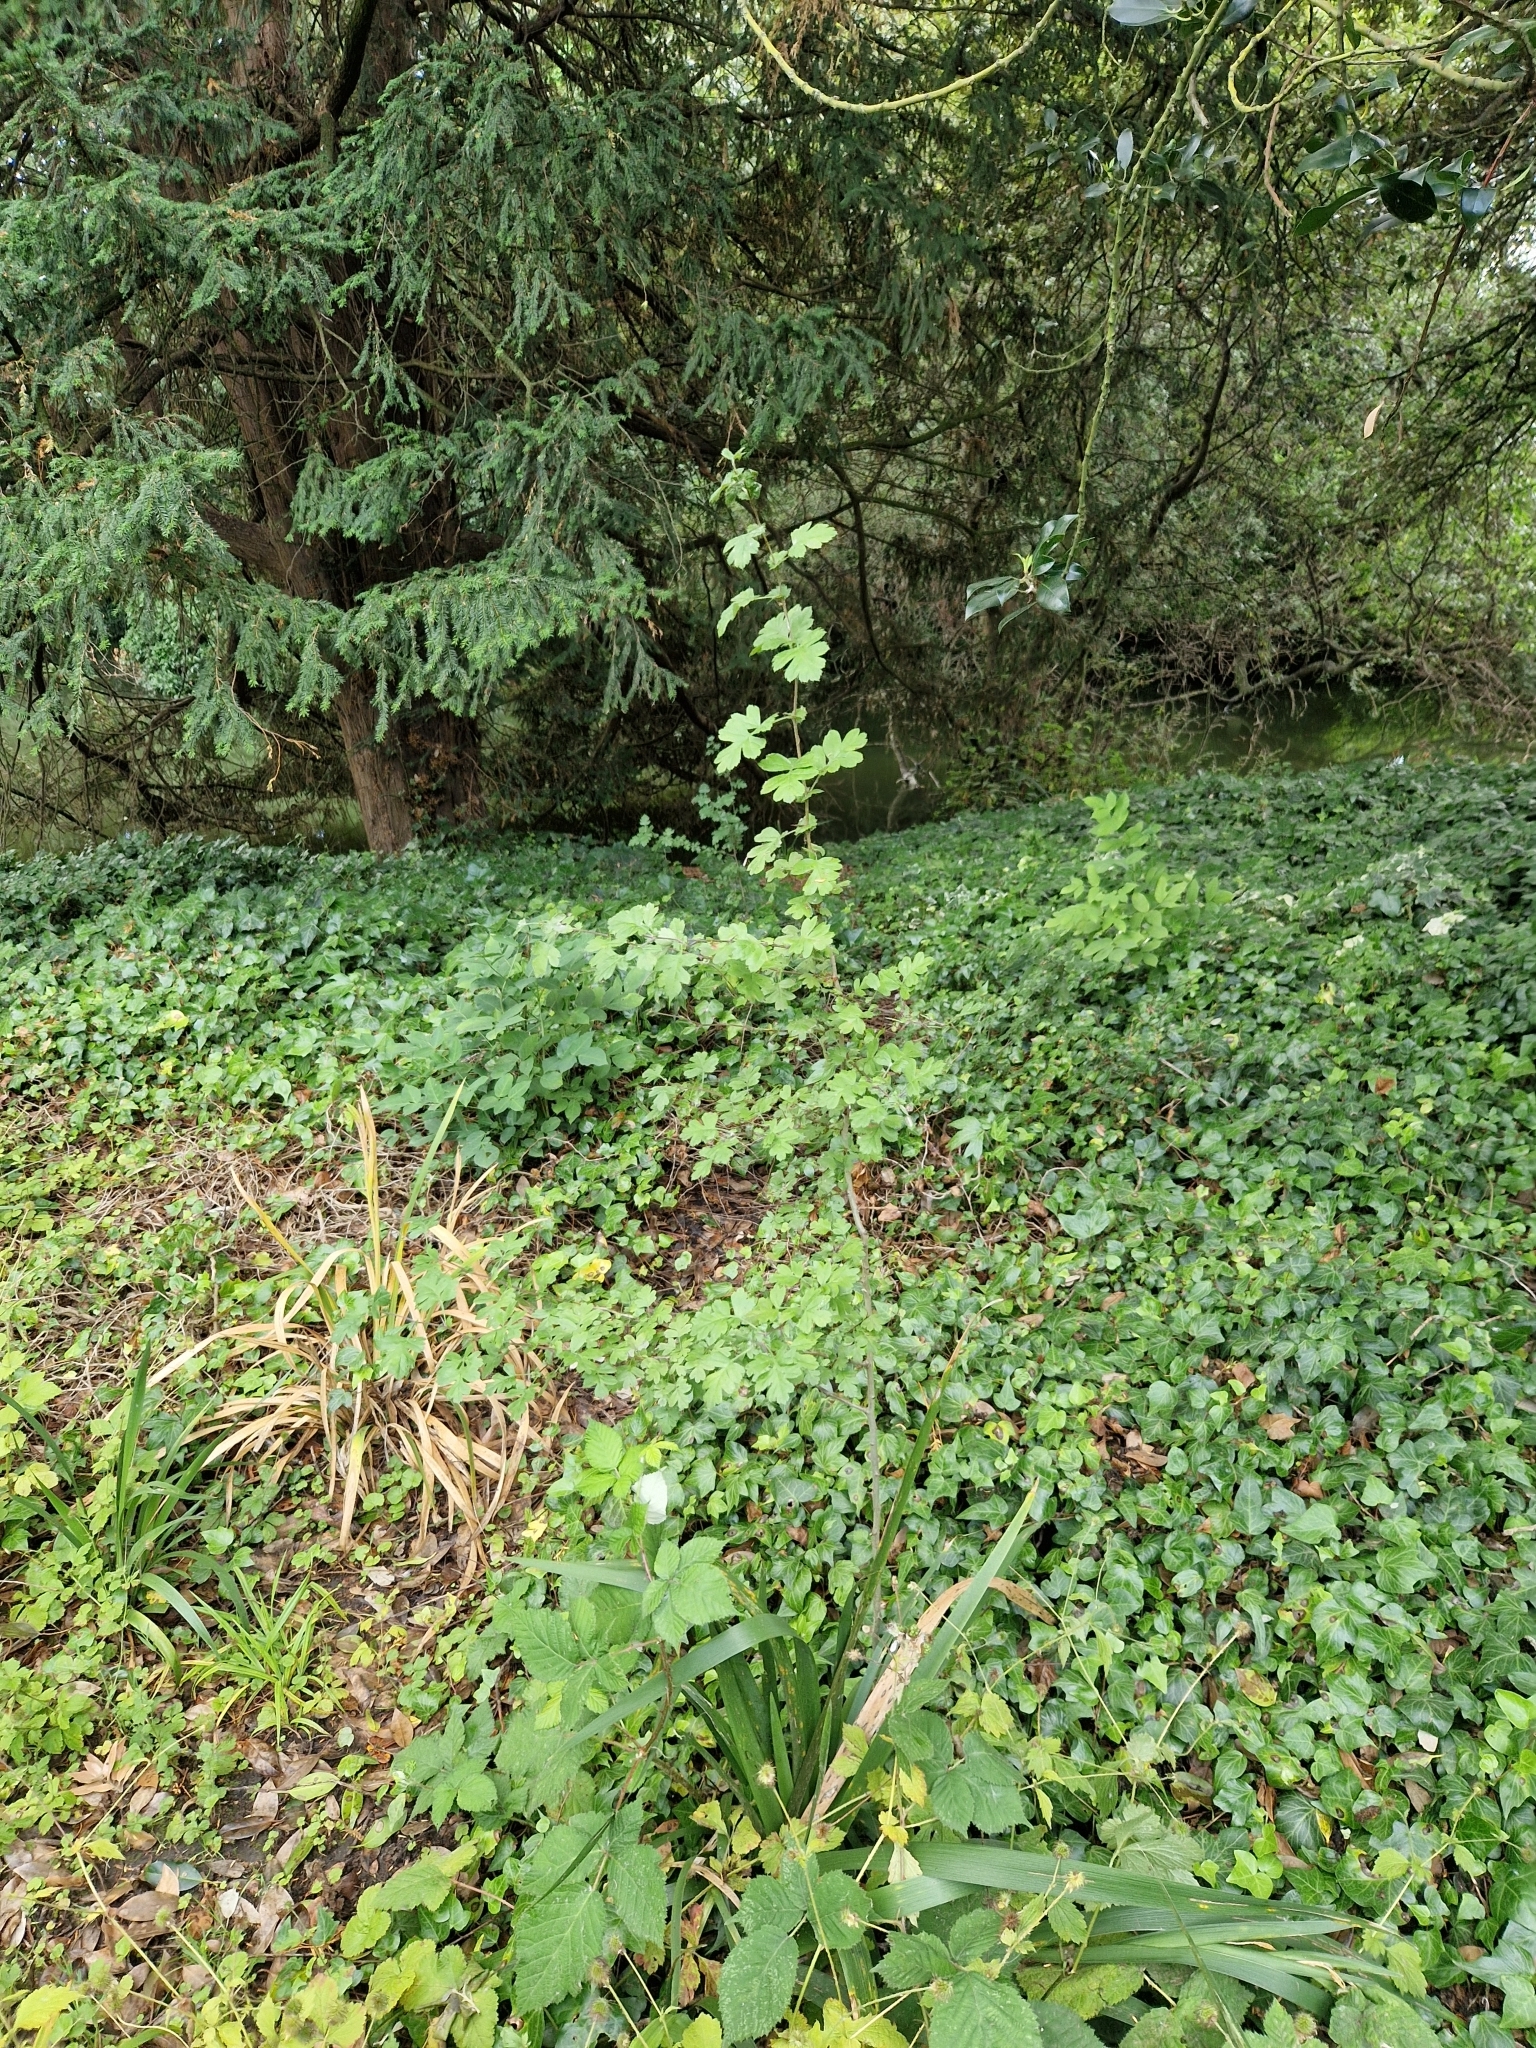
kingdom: Plantae
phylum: Tracheophyta
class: Magnoliopsida
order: Rosales
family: Rosaceae
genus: Crataegus
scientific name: Crataegus monogyna
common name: Hawthorn
